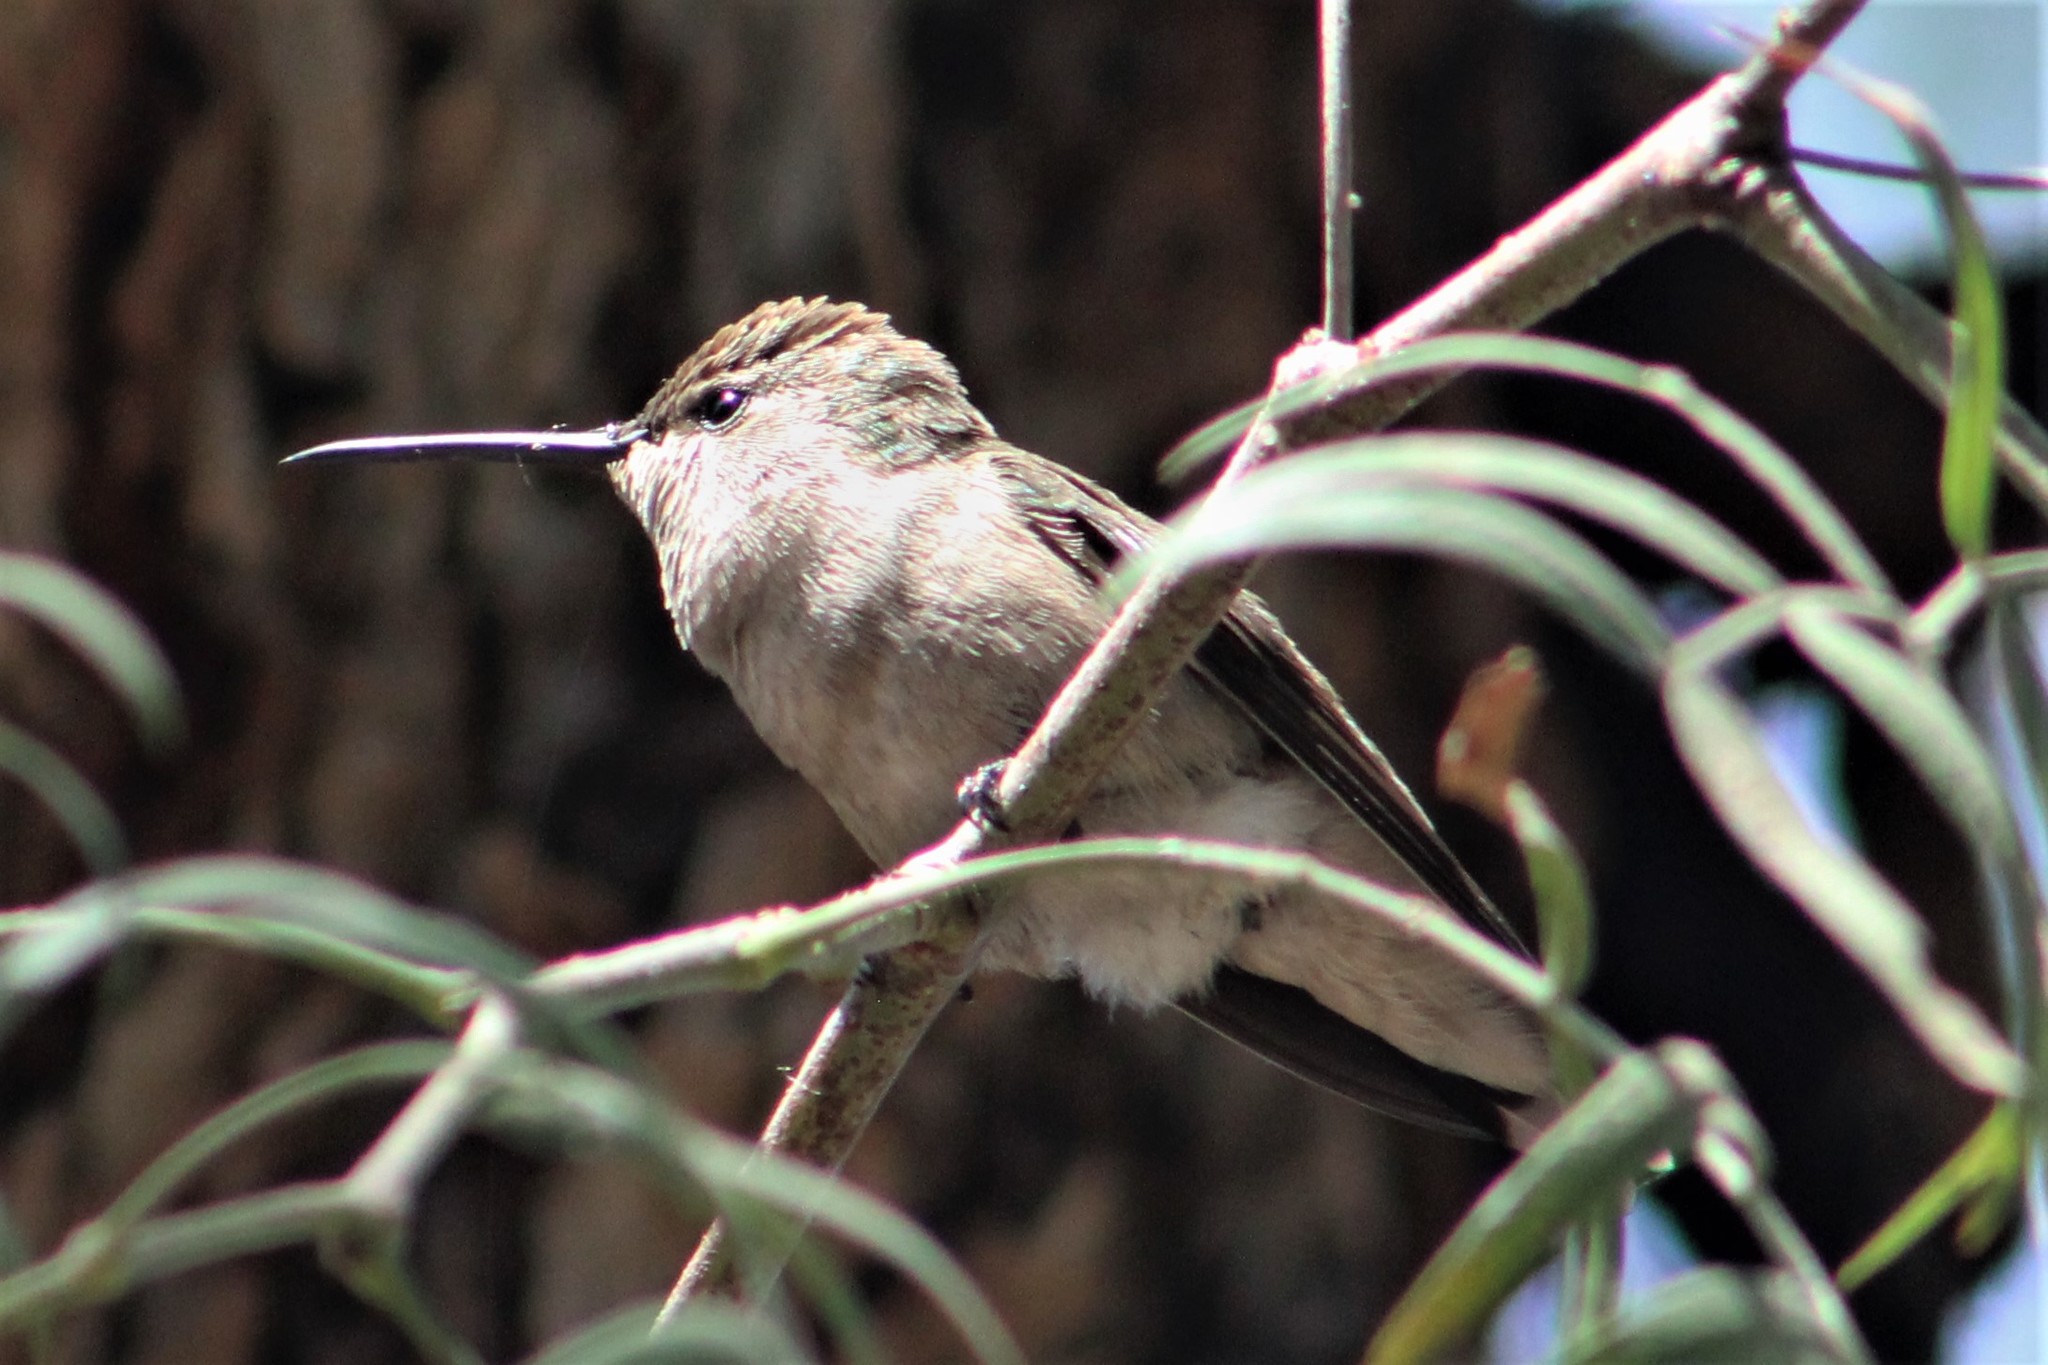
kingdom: Animalia
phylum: Chordata
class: Aves
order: Apodiformes
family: Trochilidae
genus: Archilochus
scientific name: Archilochus alexandri
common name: Black-chinned hummingbird
